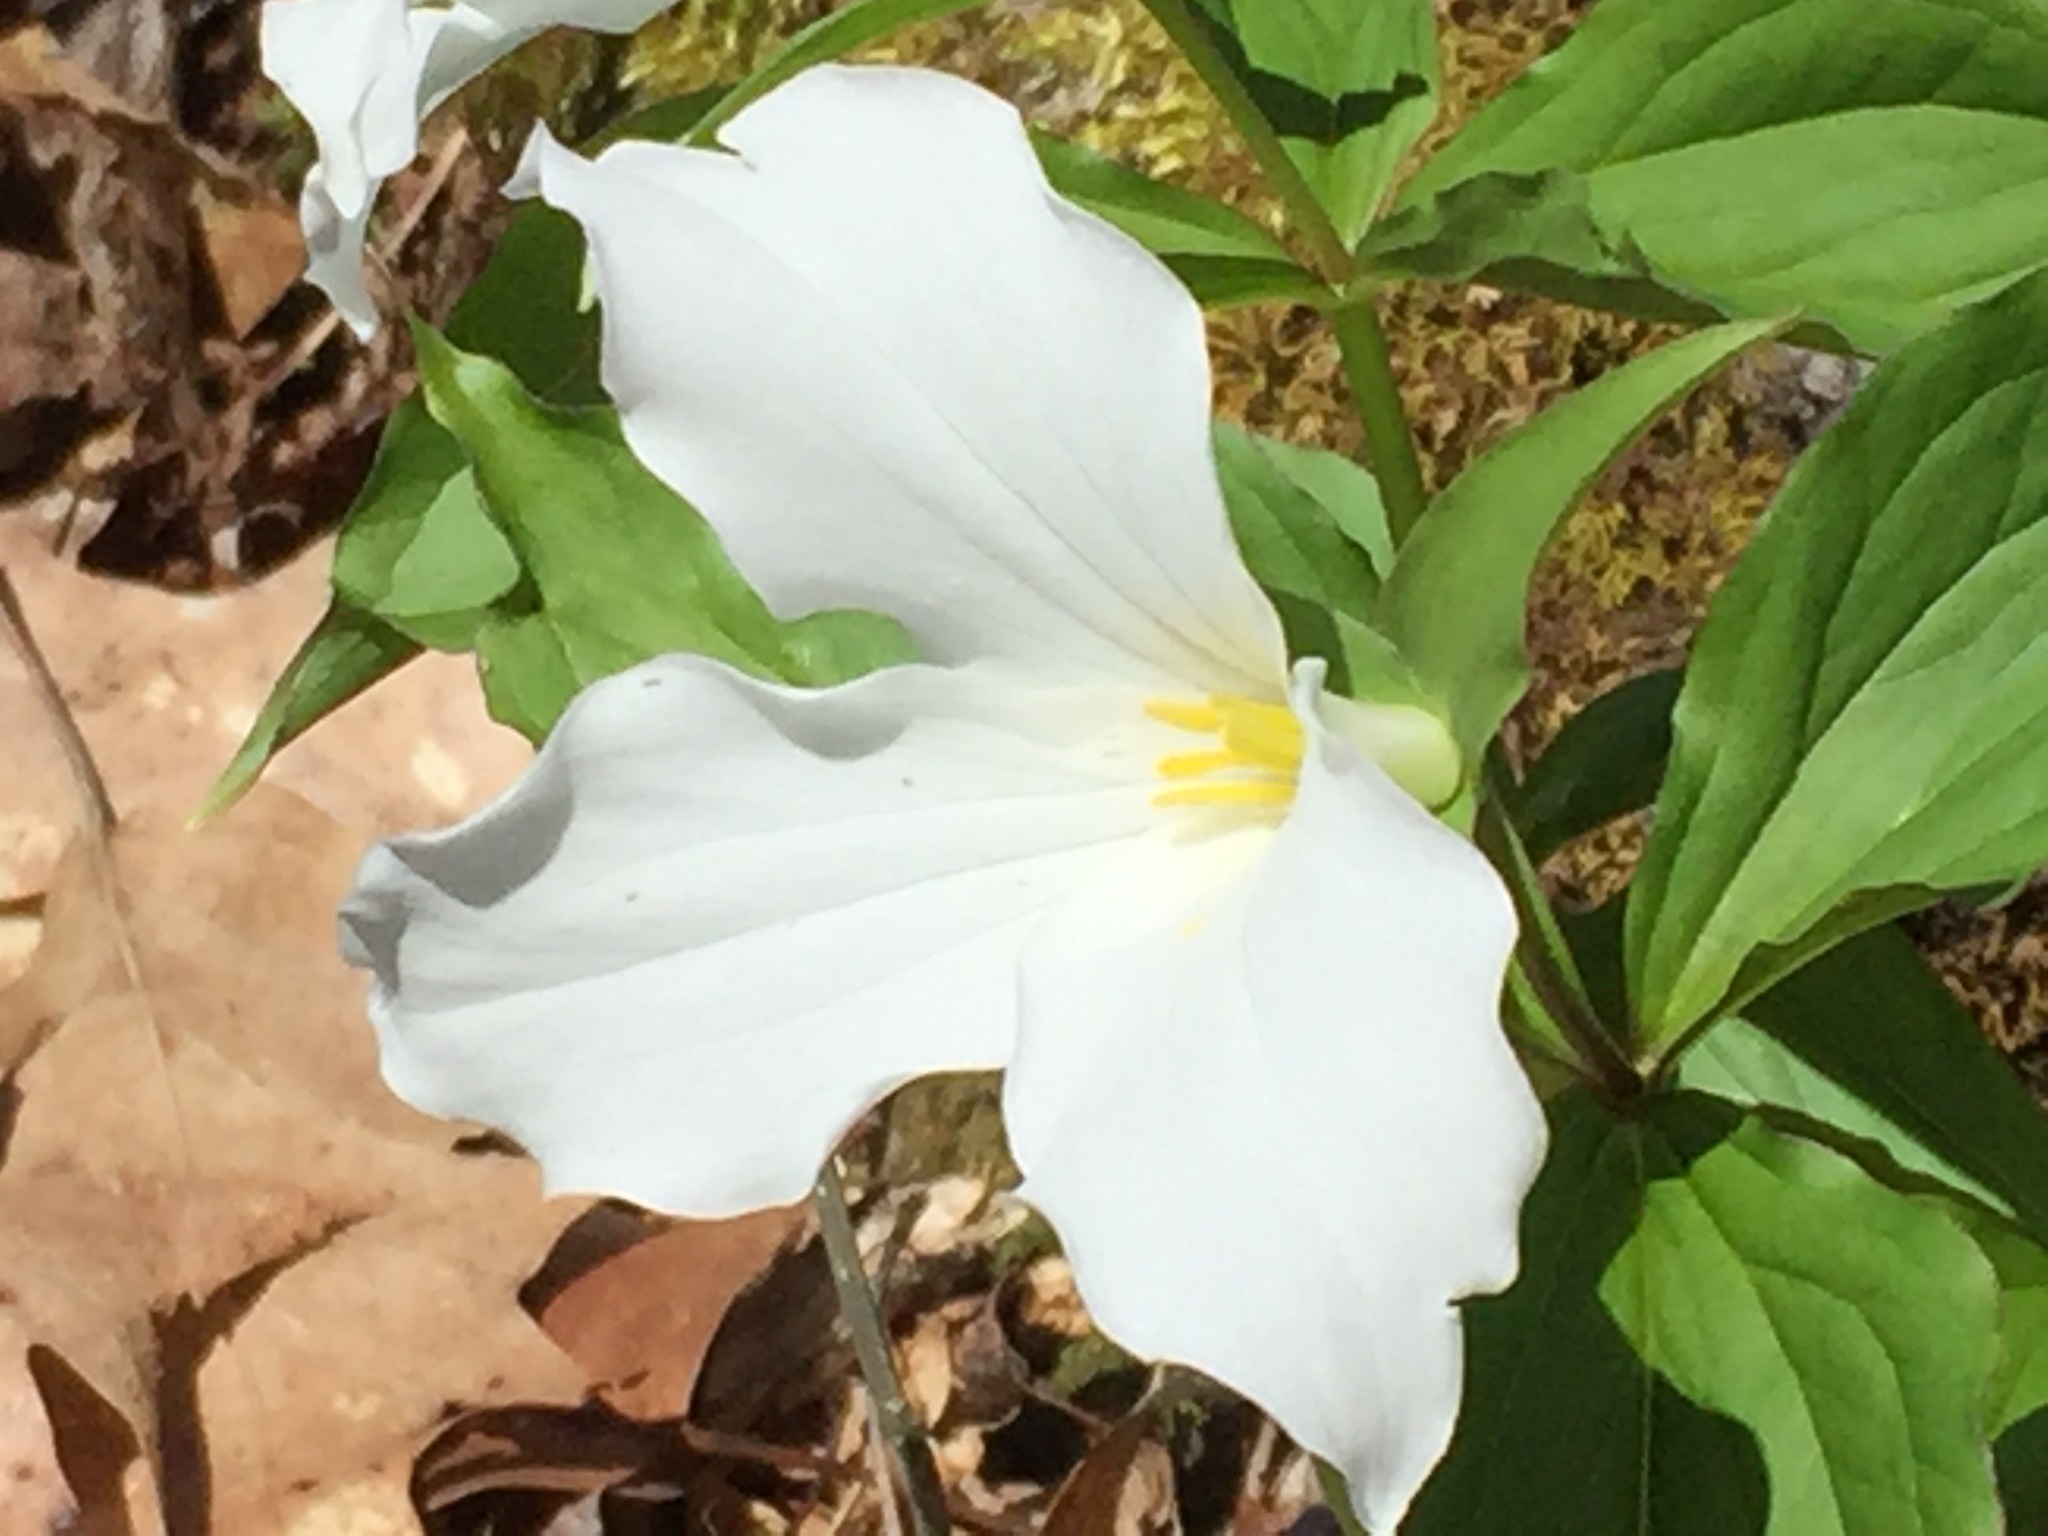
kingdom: Plantae
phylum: Tracheophyta
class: Liliopsida
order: Liliales
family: Melanthiaceae
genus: Trillium
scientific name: Trillium grandiflorum
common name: Great white trillium
